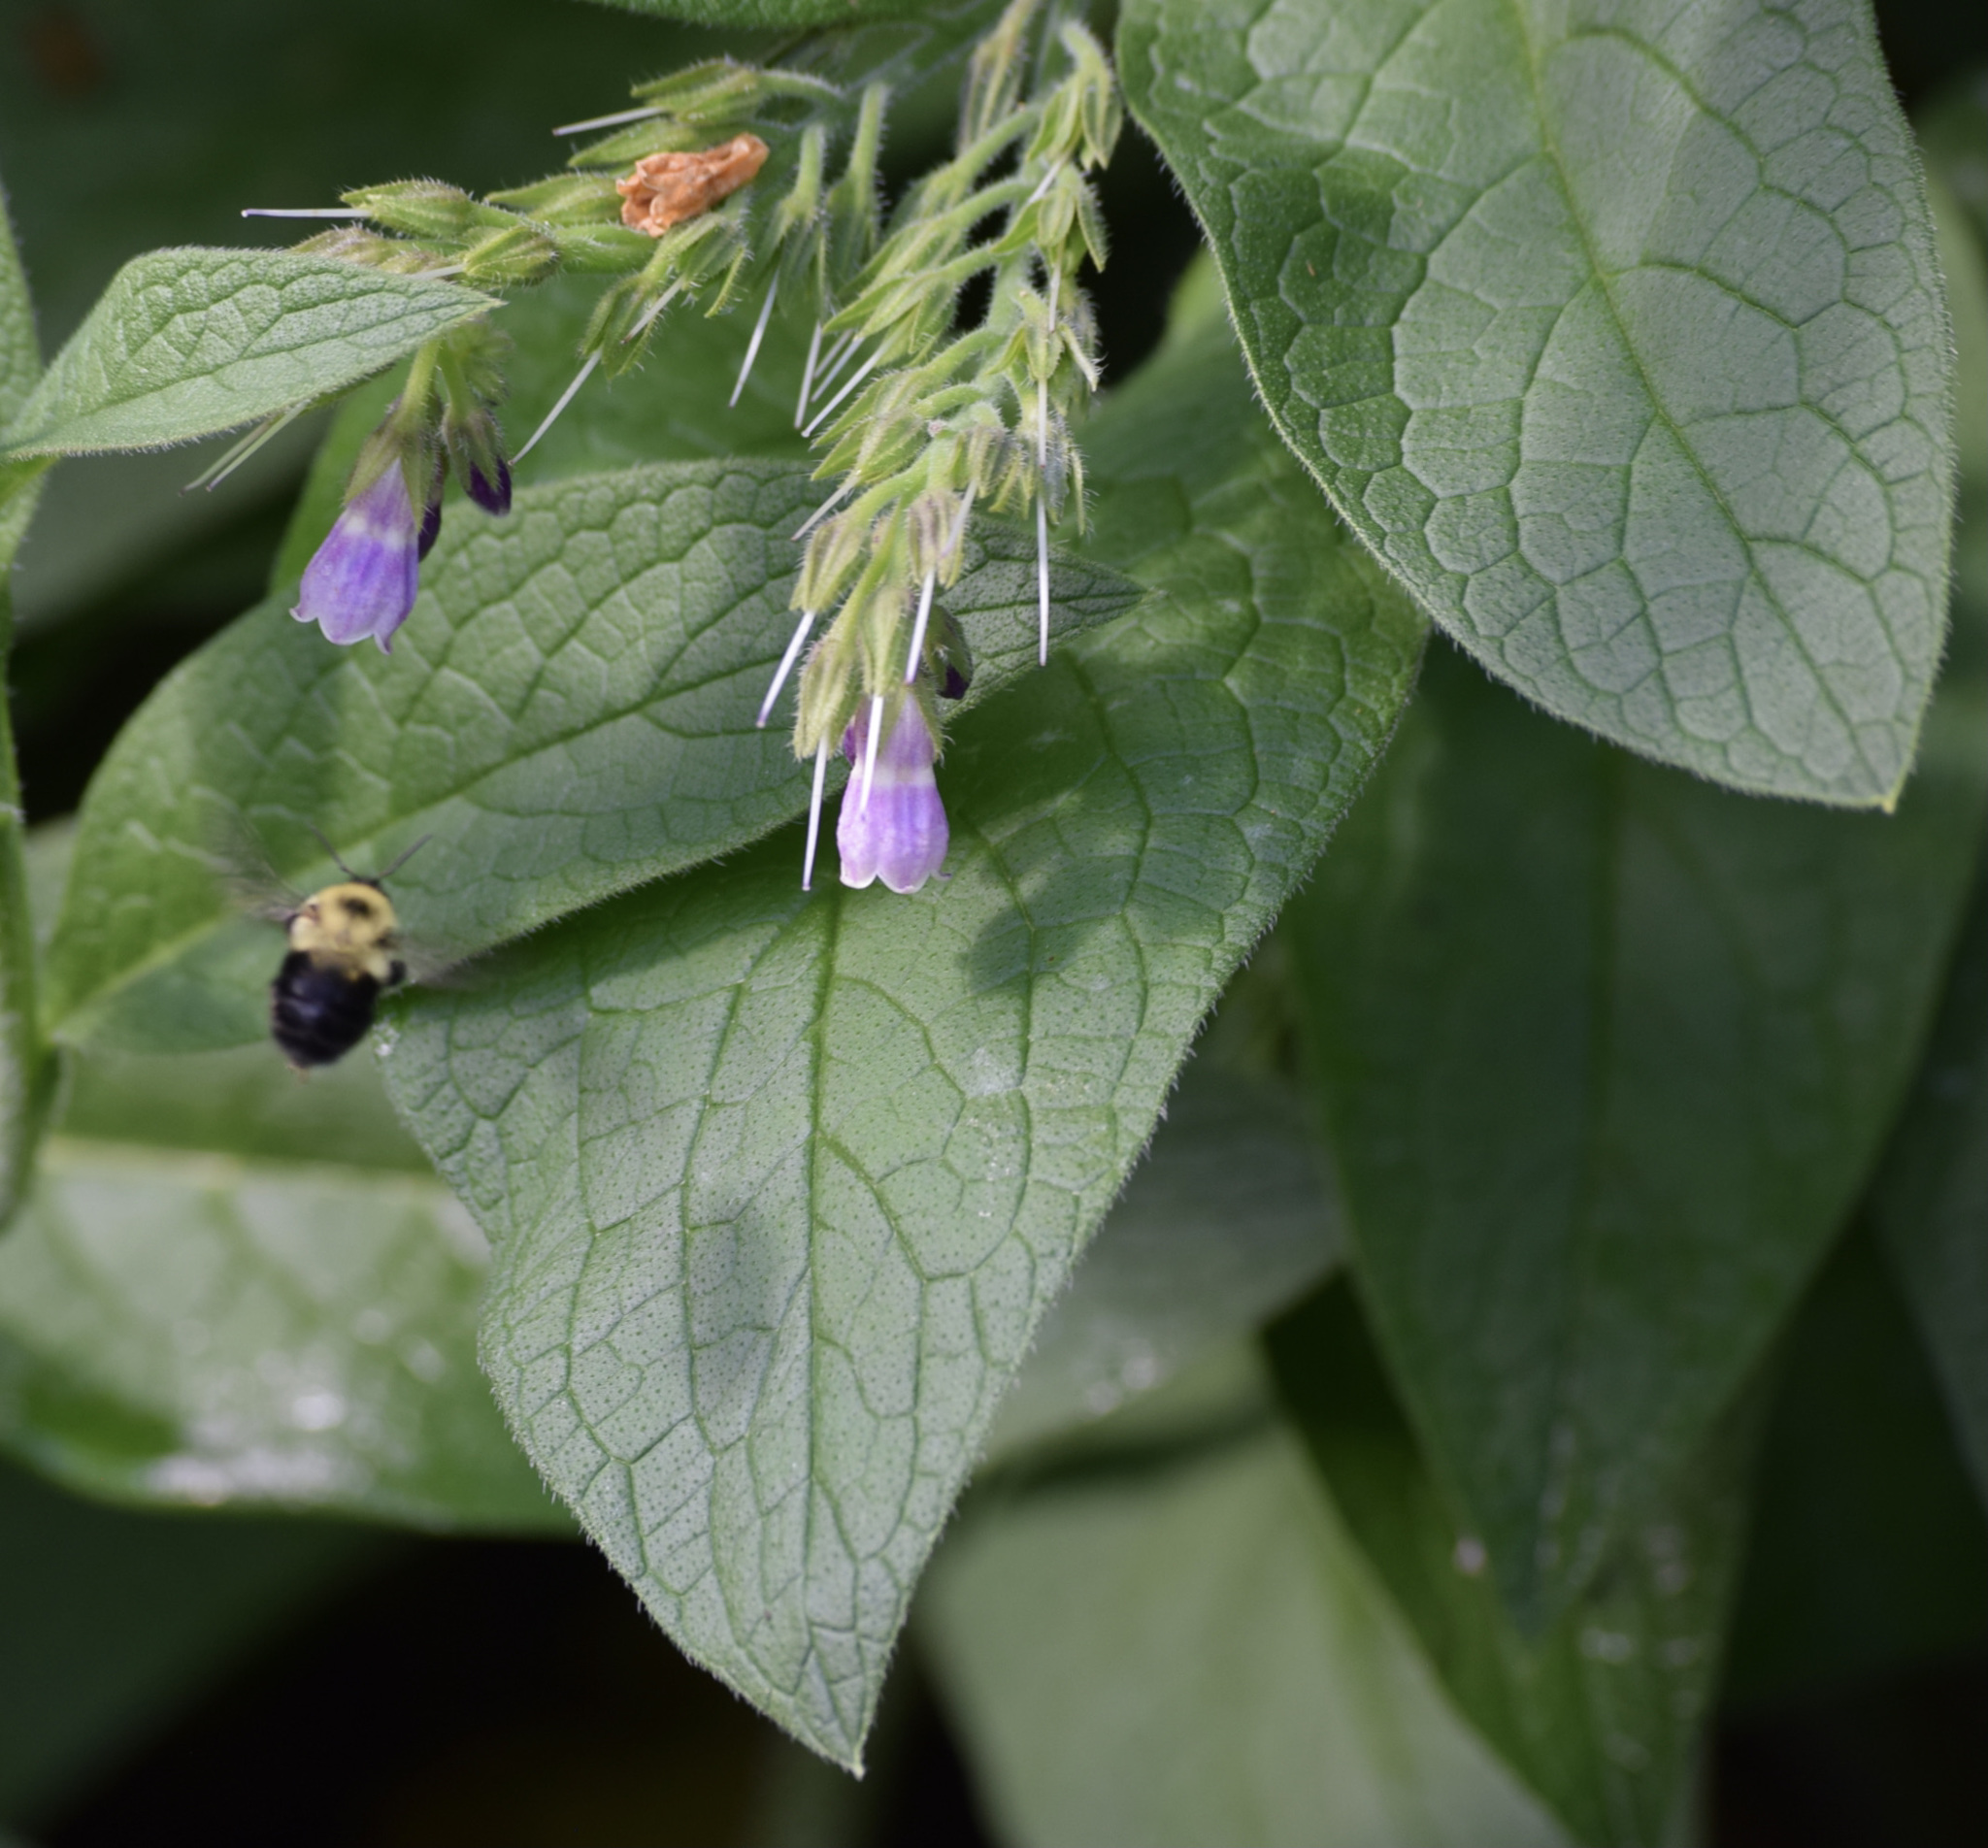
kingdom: Animalia
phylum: Arthropoda
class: Insecta
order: Hymenoptera
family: Apidae
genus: Bombus
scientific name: Bombus bimaculatus
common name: Two-spotted bumble bee
